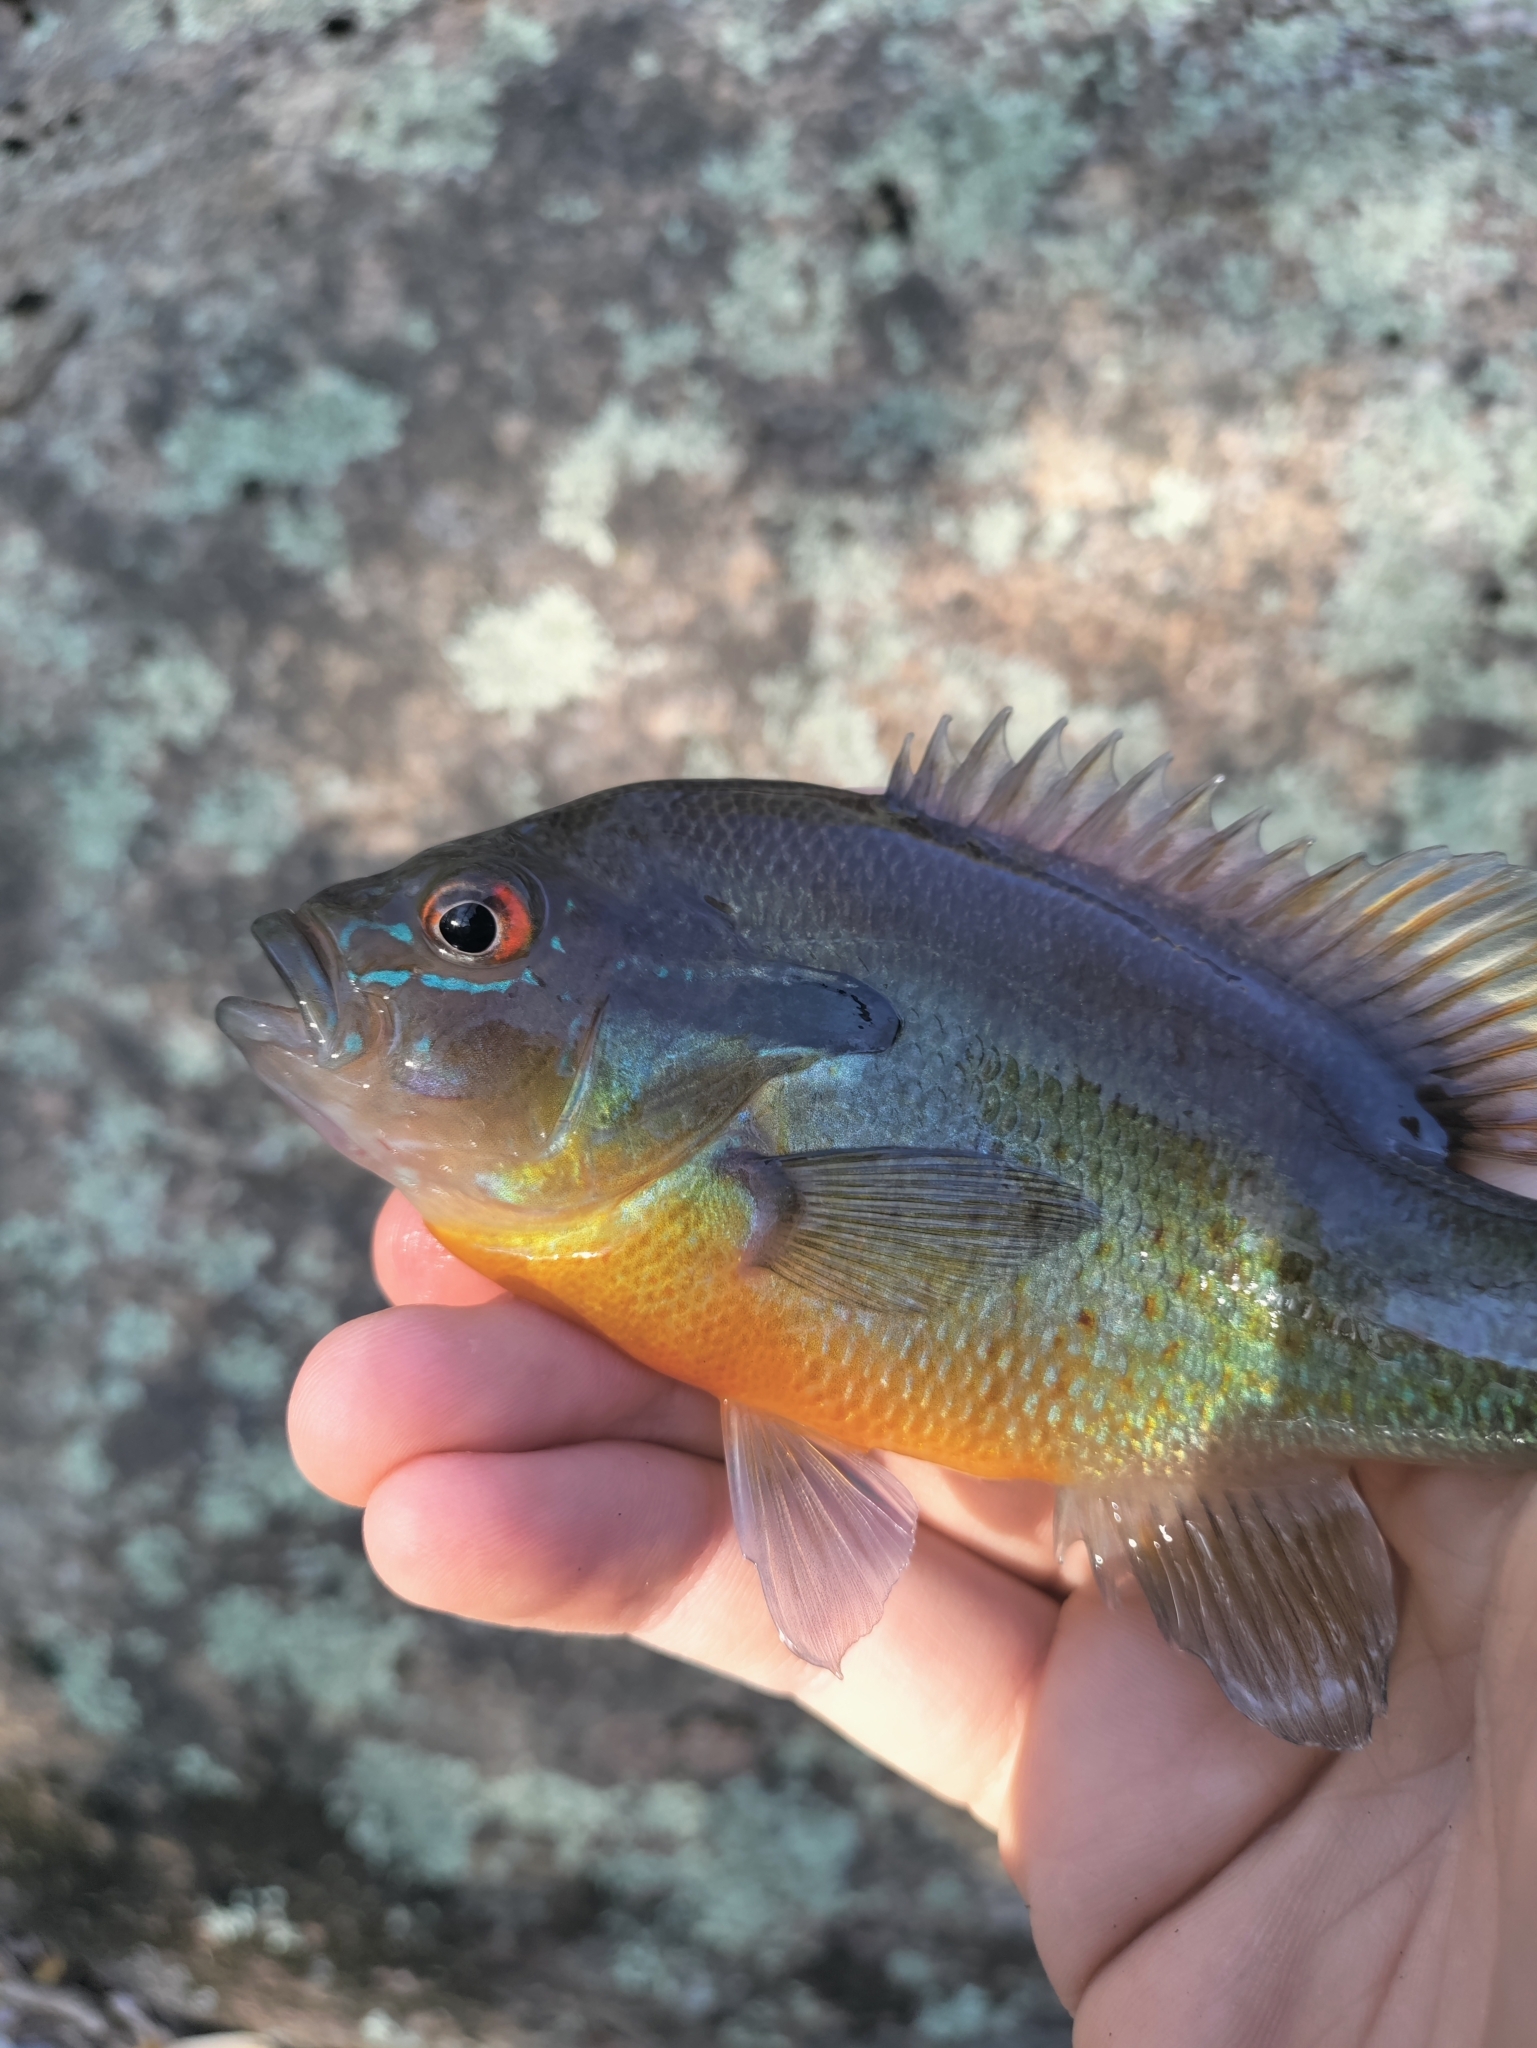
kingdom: Animalia
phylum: Chordata
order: Perciformes
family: Centrarchidae
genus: Lepomis
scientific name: Lepomis auritus
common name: Redbreast sunfish
